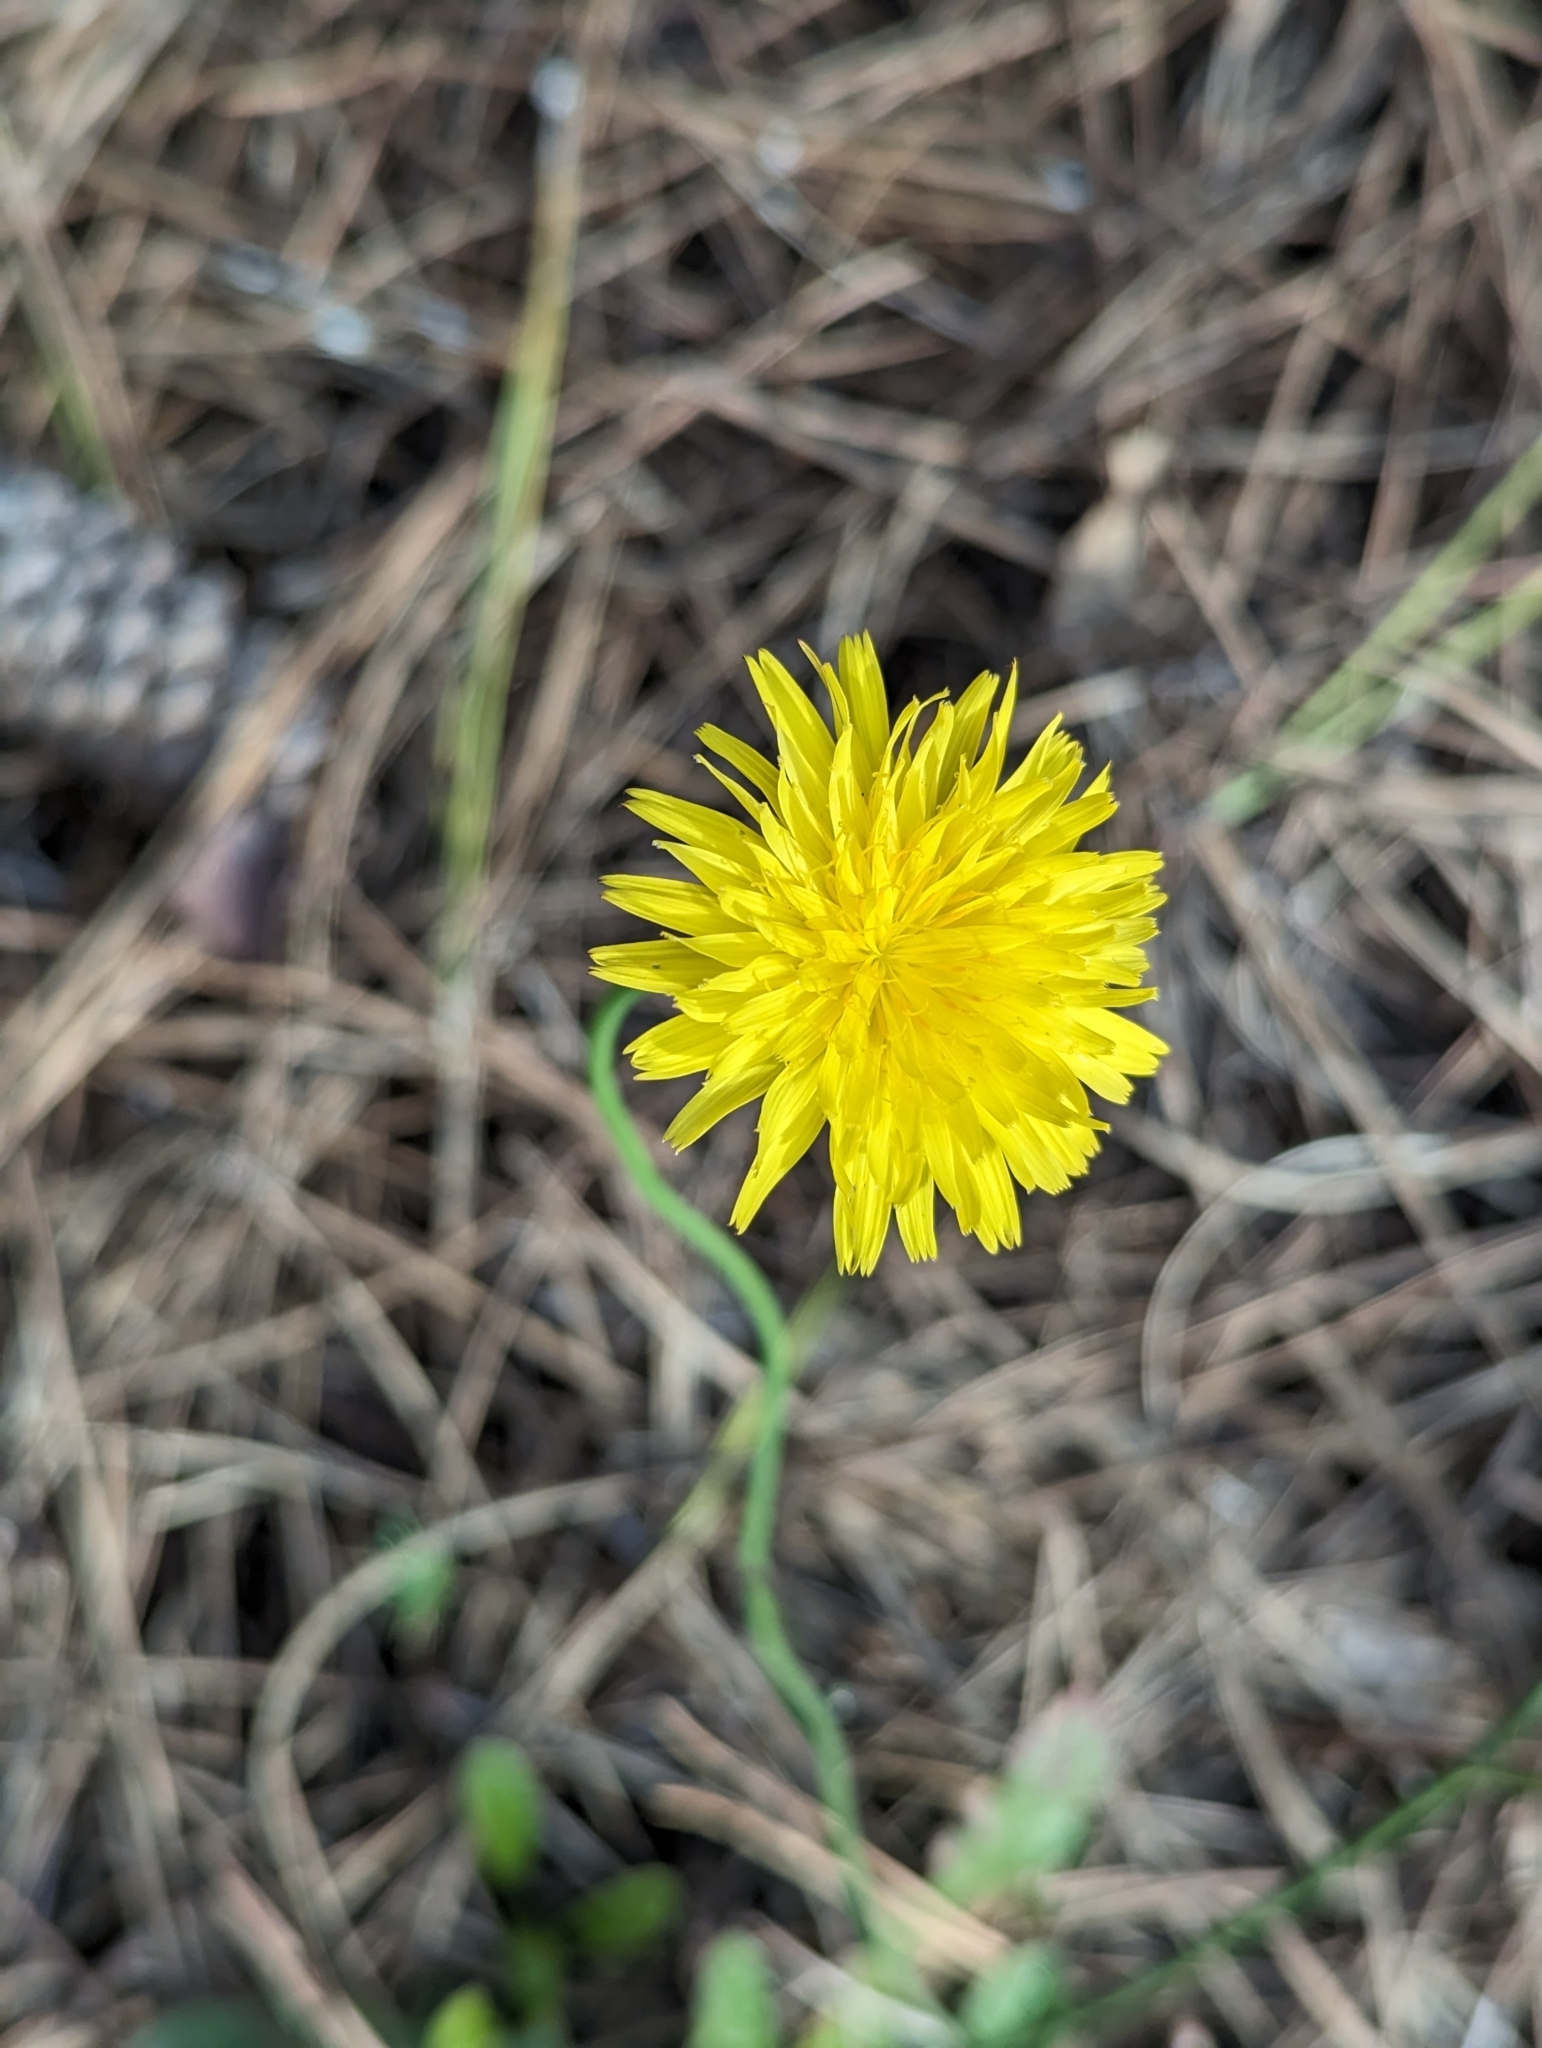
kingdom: Plantae
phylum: Tracheophyta
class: Magnoliopsida
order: Asterales
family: Asteraceae
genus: Hypochaeris
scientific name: Hypochaeris radicata
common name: Flatweed
